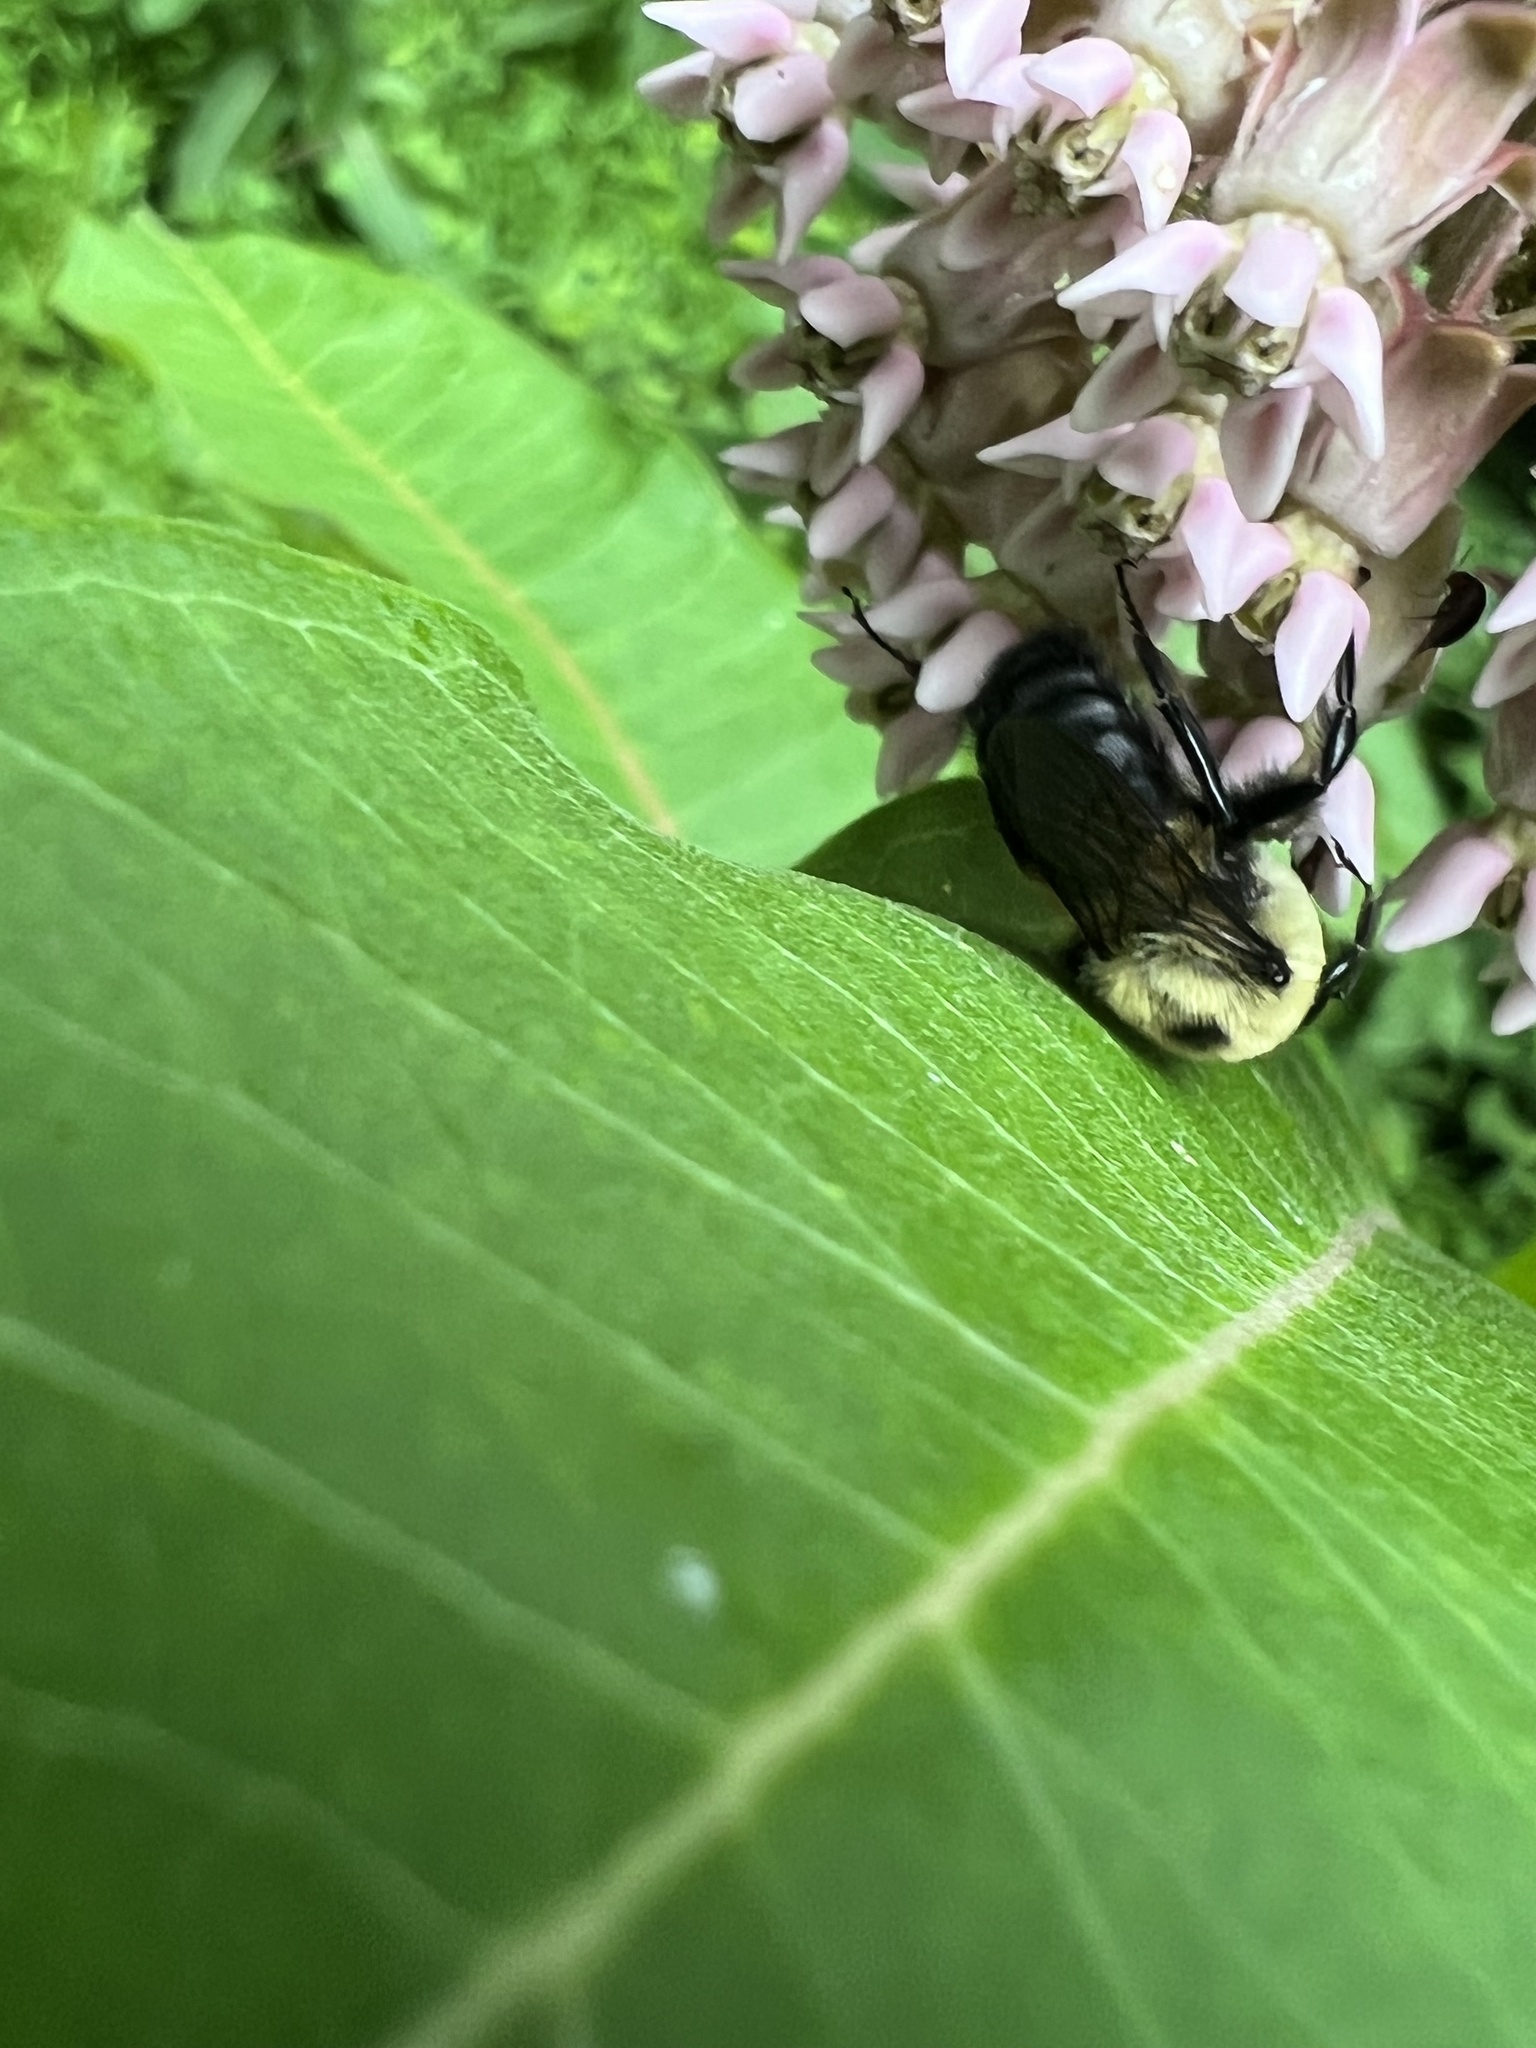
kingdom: Animalia
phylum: Arthropoda
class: Insecta
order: Hymenoptera
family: Apidae
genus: Bombus
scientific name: Bombus griseocollis
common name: Brown-belted bumble bee
